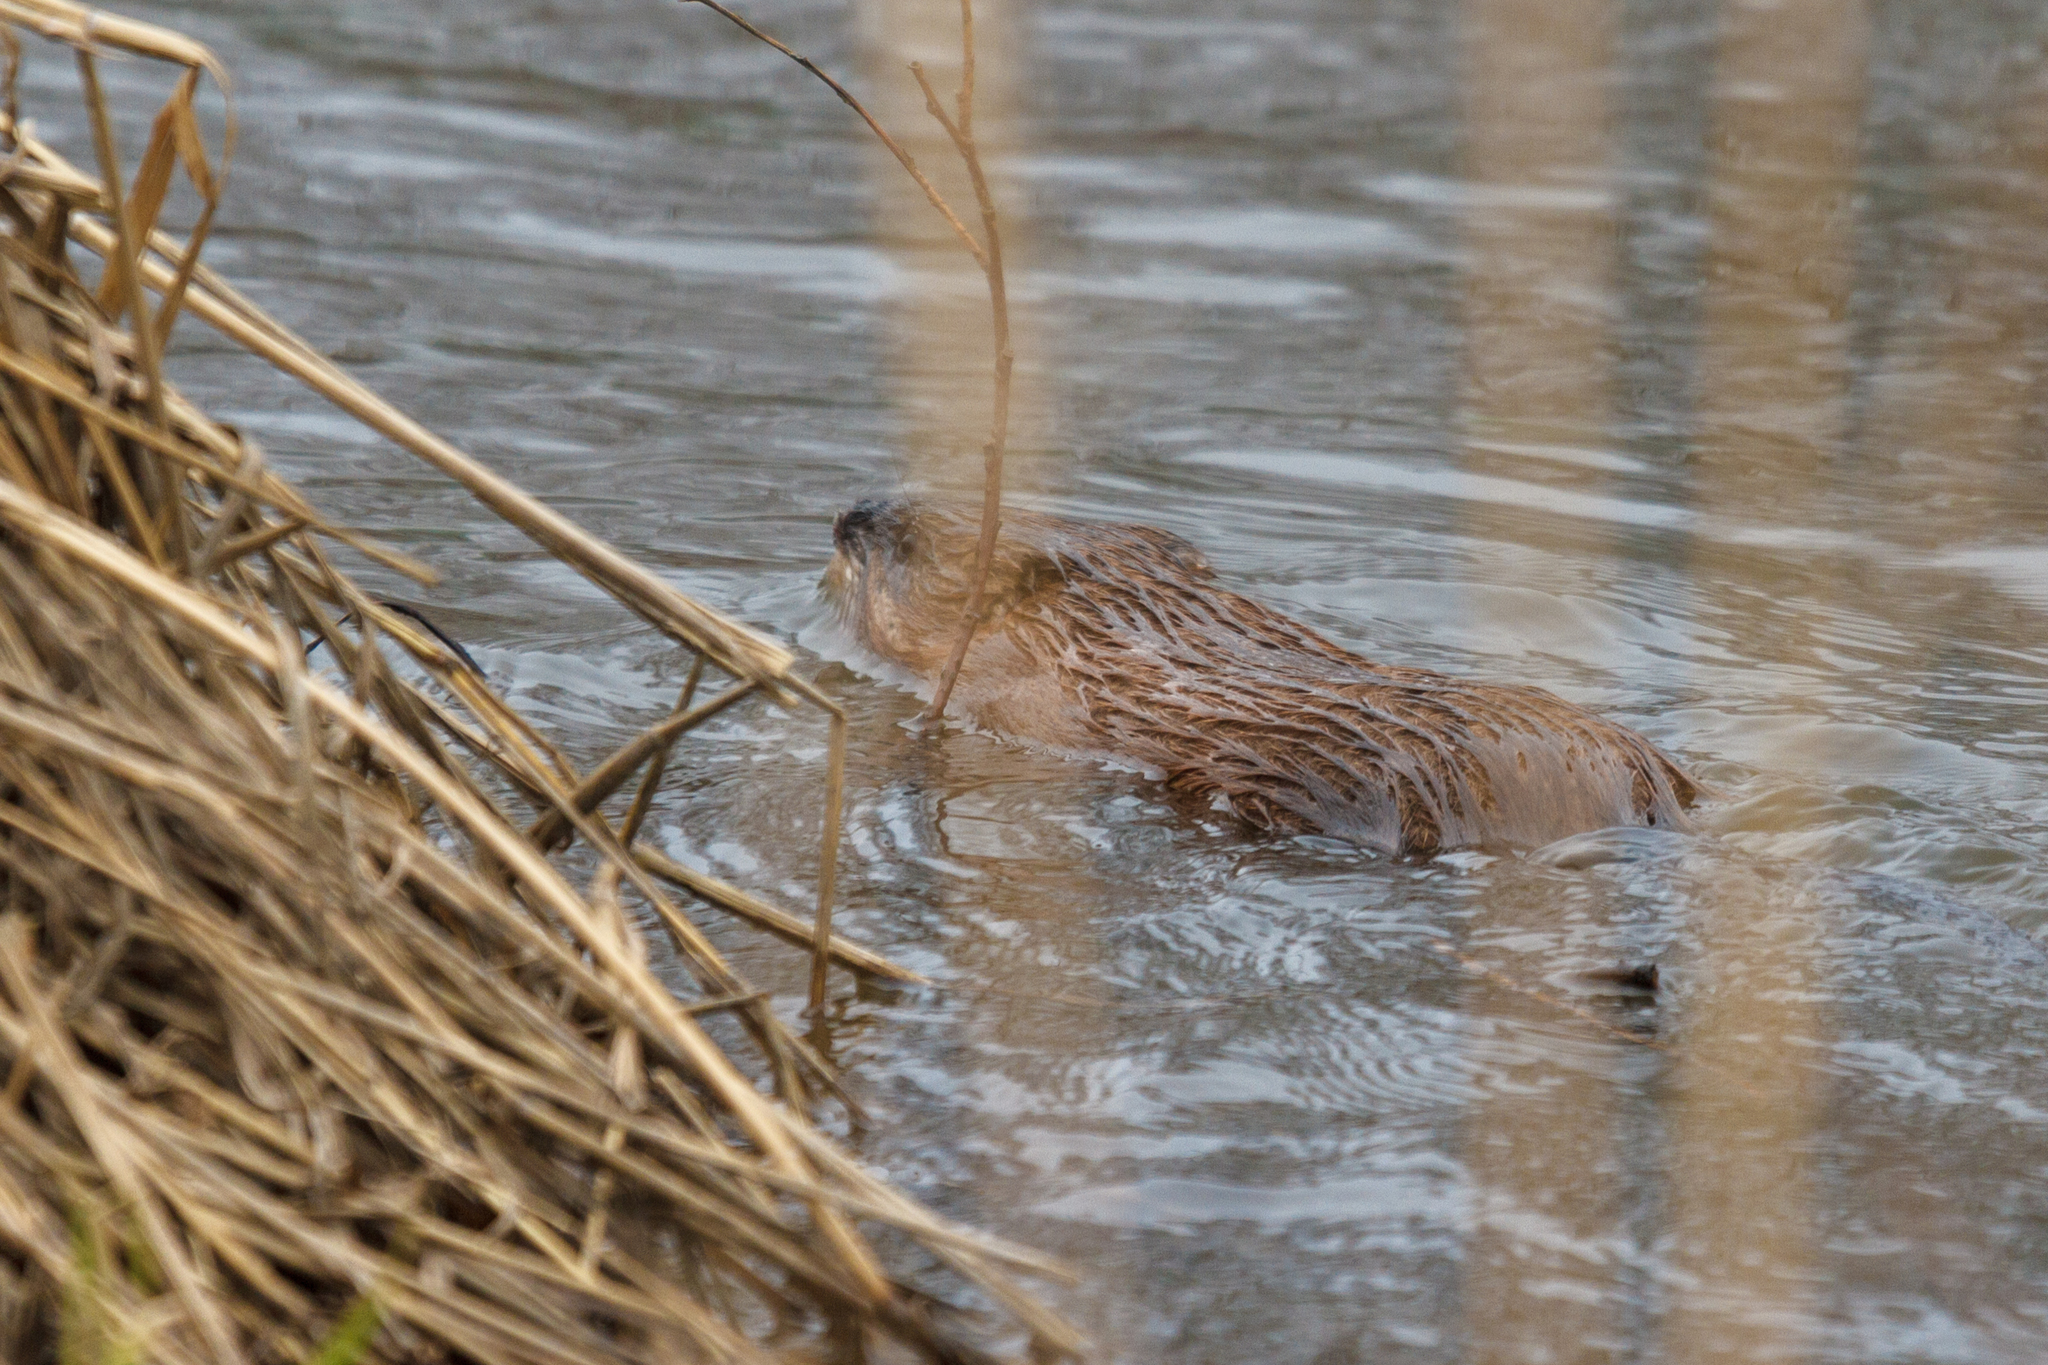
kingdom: Animalia
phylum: Chordata
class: Mammalia
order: Rodentia
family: Cricetidae
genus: Ondatra
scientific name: Ondatra zibethicus
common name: Muskrat
